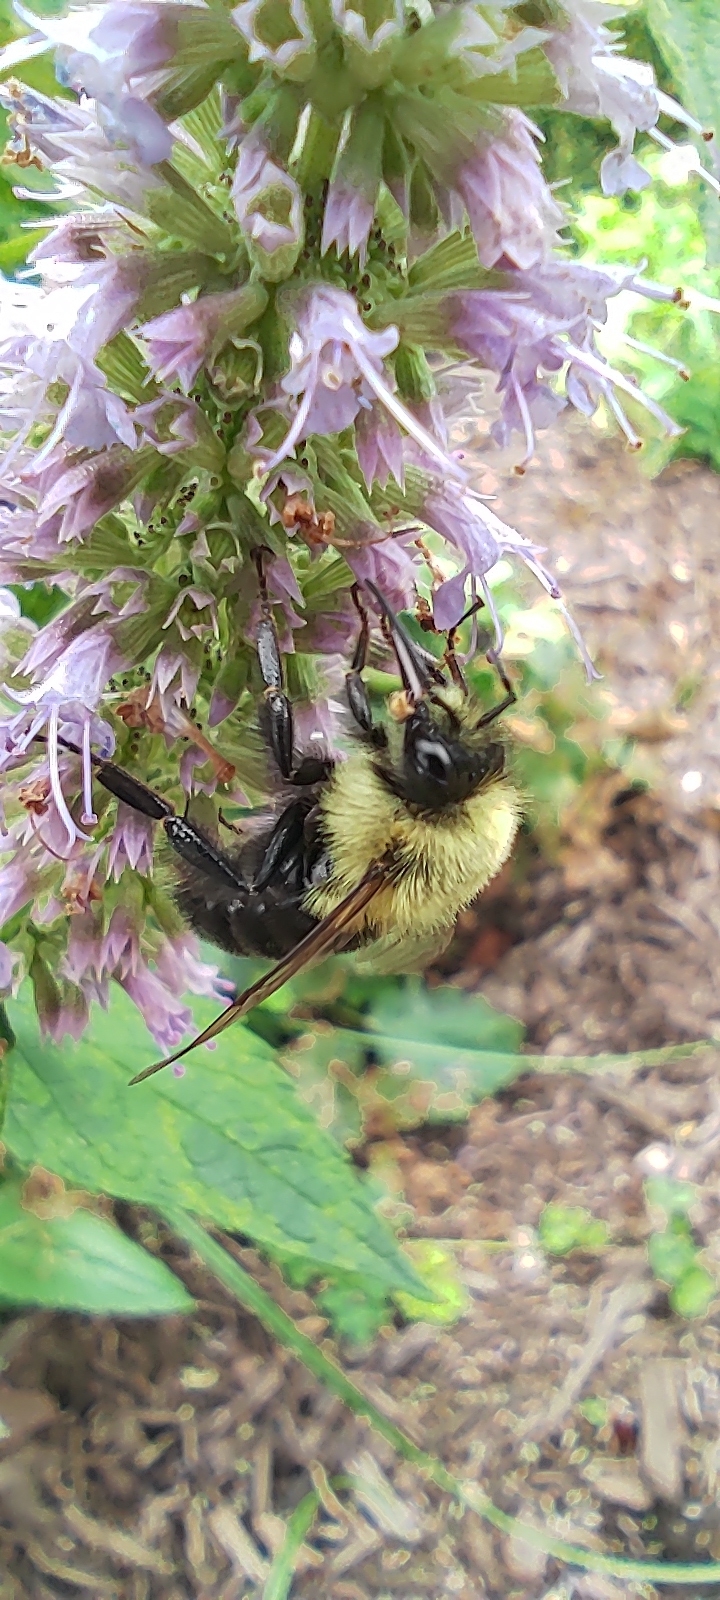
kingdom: Animalia
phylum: Arthropoda
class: Insecta
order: Hymenoptera
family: Apidae
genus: Bombus
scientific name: Bombus impatiens
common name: Common eastern bumble bee
